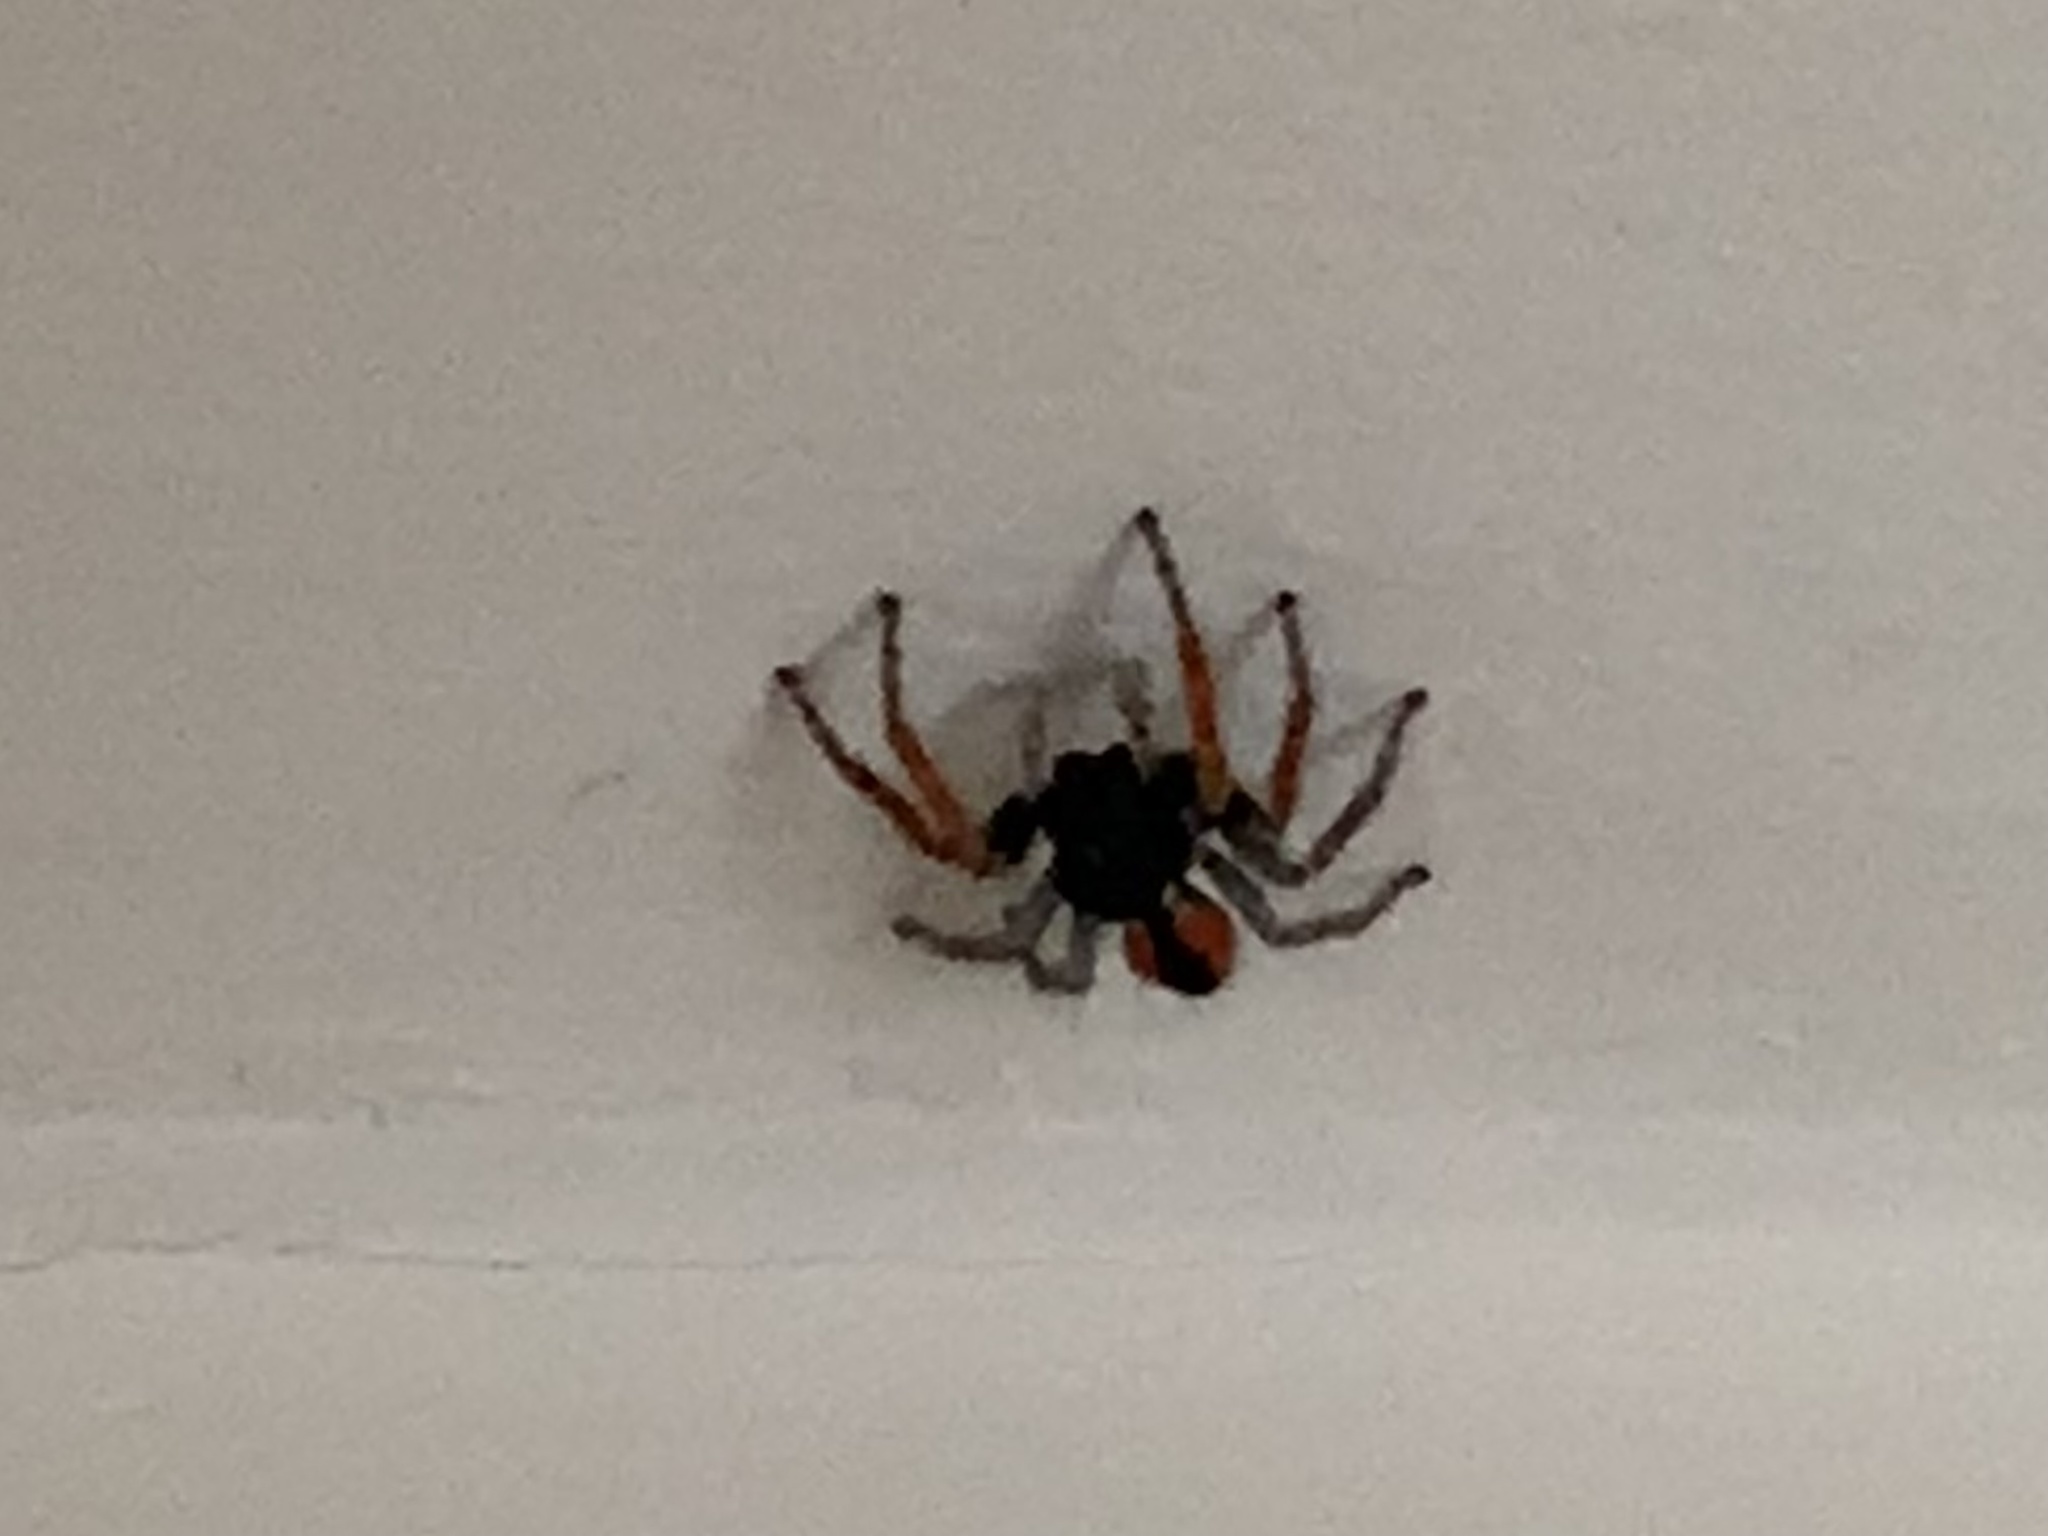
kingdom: Animalia
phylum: Arthropoda
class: Arachnida
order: Araneae
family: Salticidae
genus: Philaeus
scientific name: Philaeus chrysops
